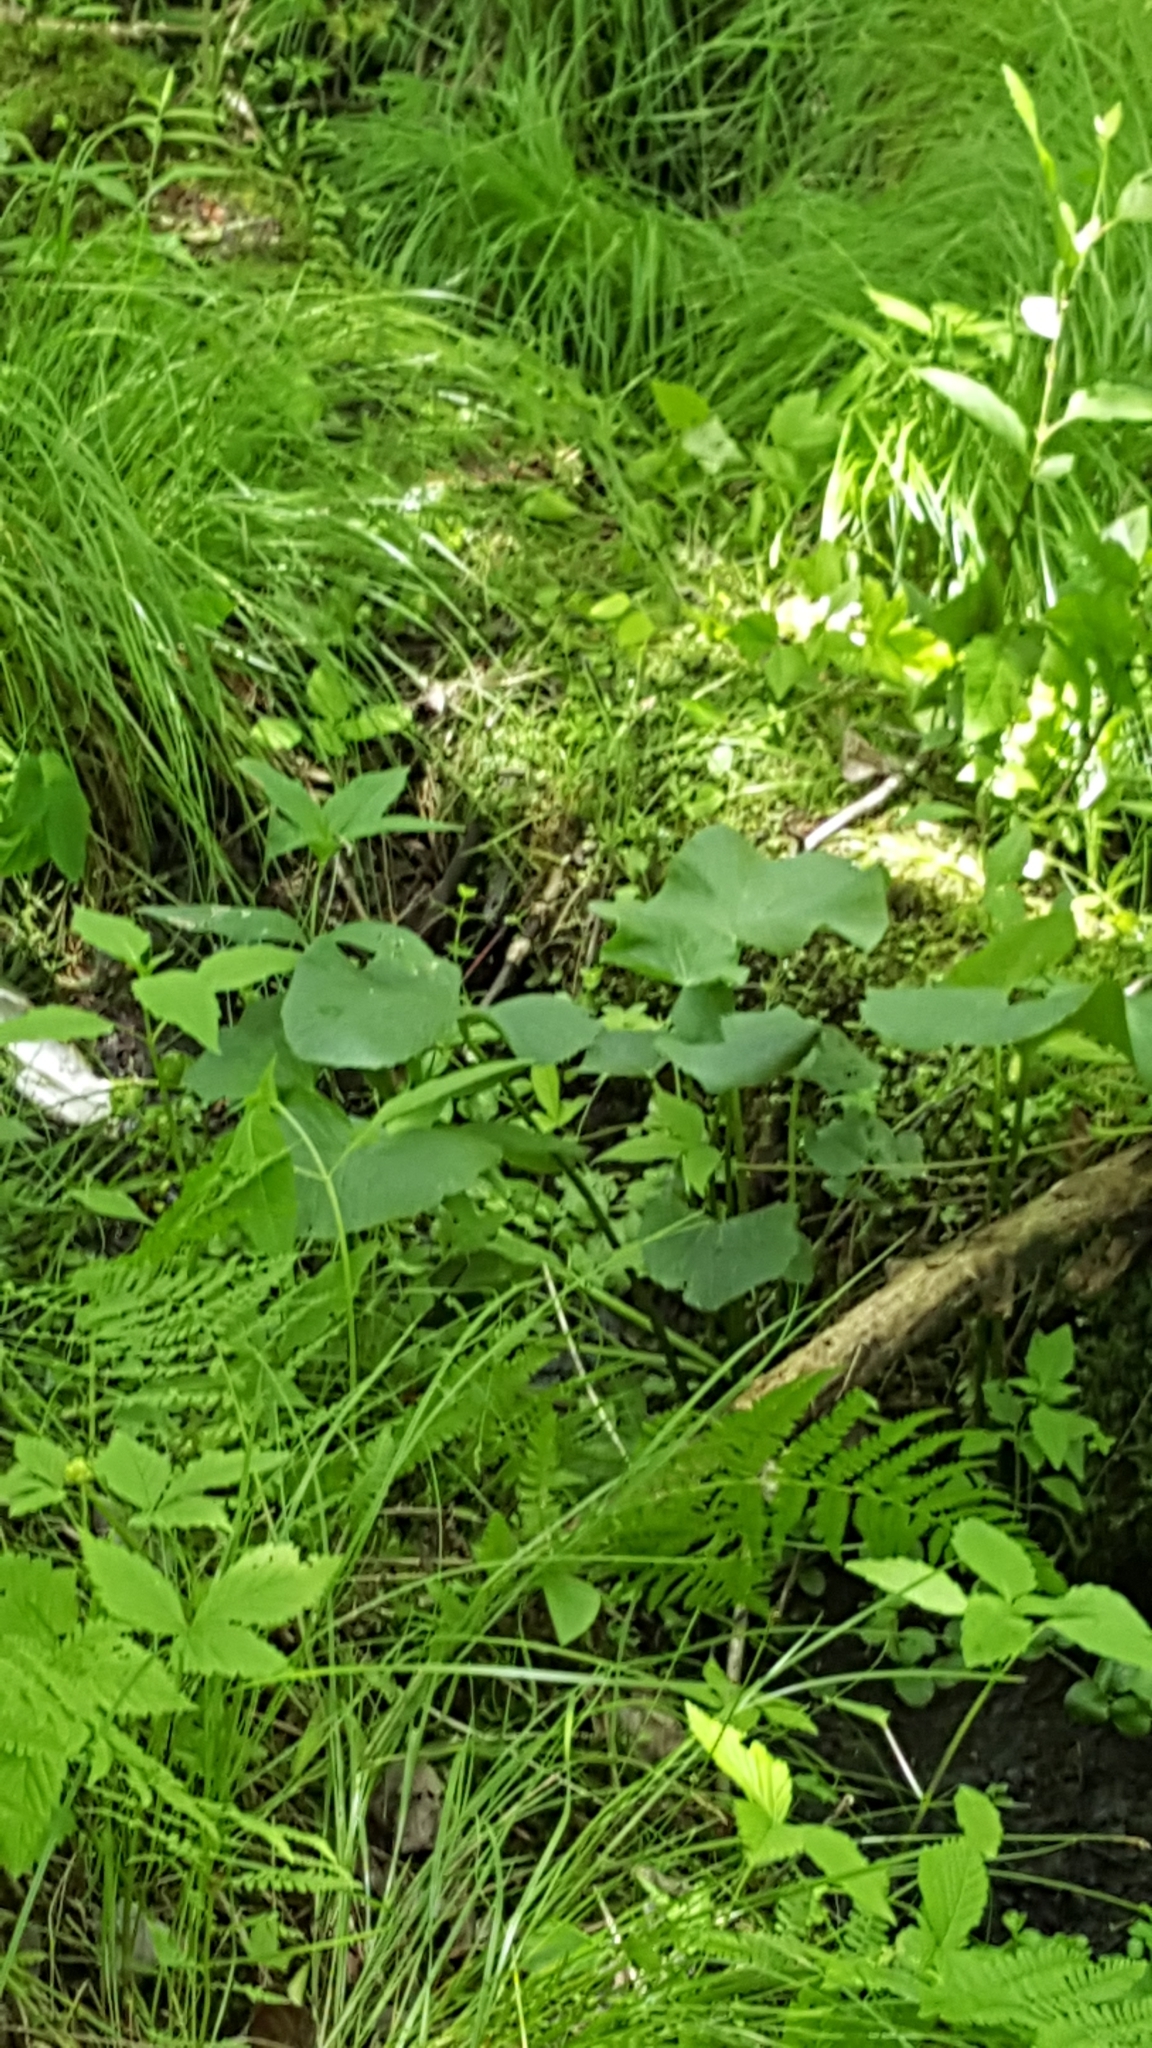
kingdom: Plantae
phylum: Tracheophyta
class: Magnoliopsida
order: Ranunculales
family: Ranunculaceae
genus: Caltha
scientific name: Caltha palustris
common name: Marsh marigold
